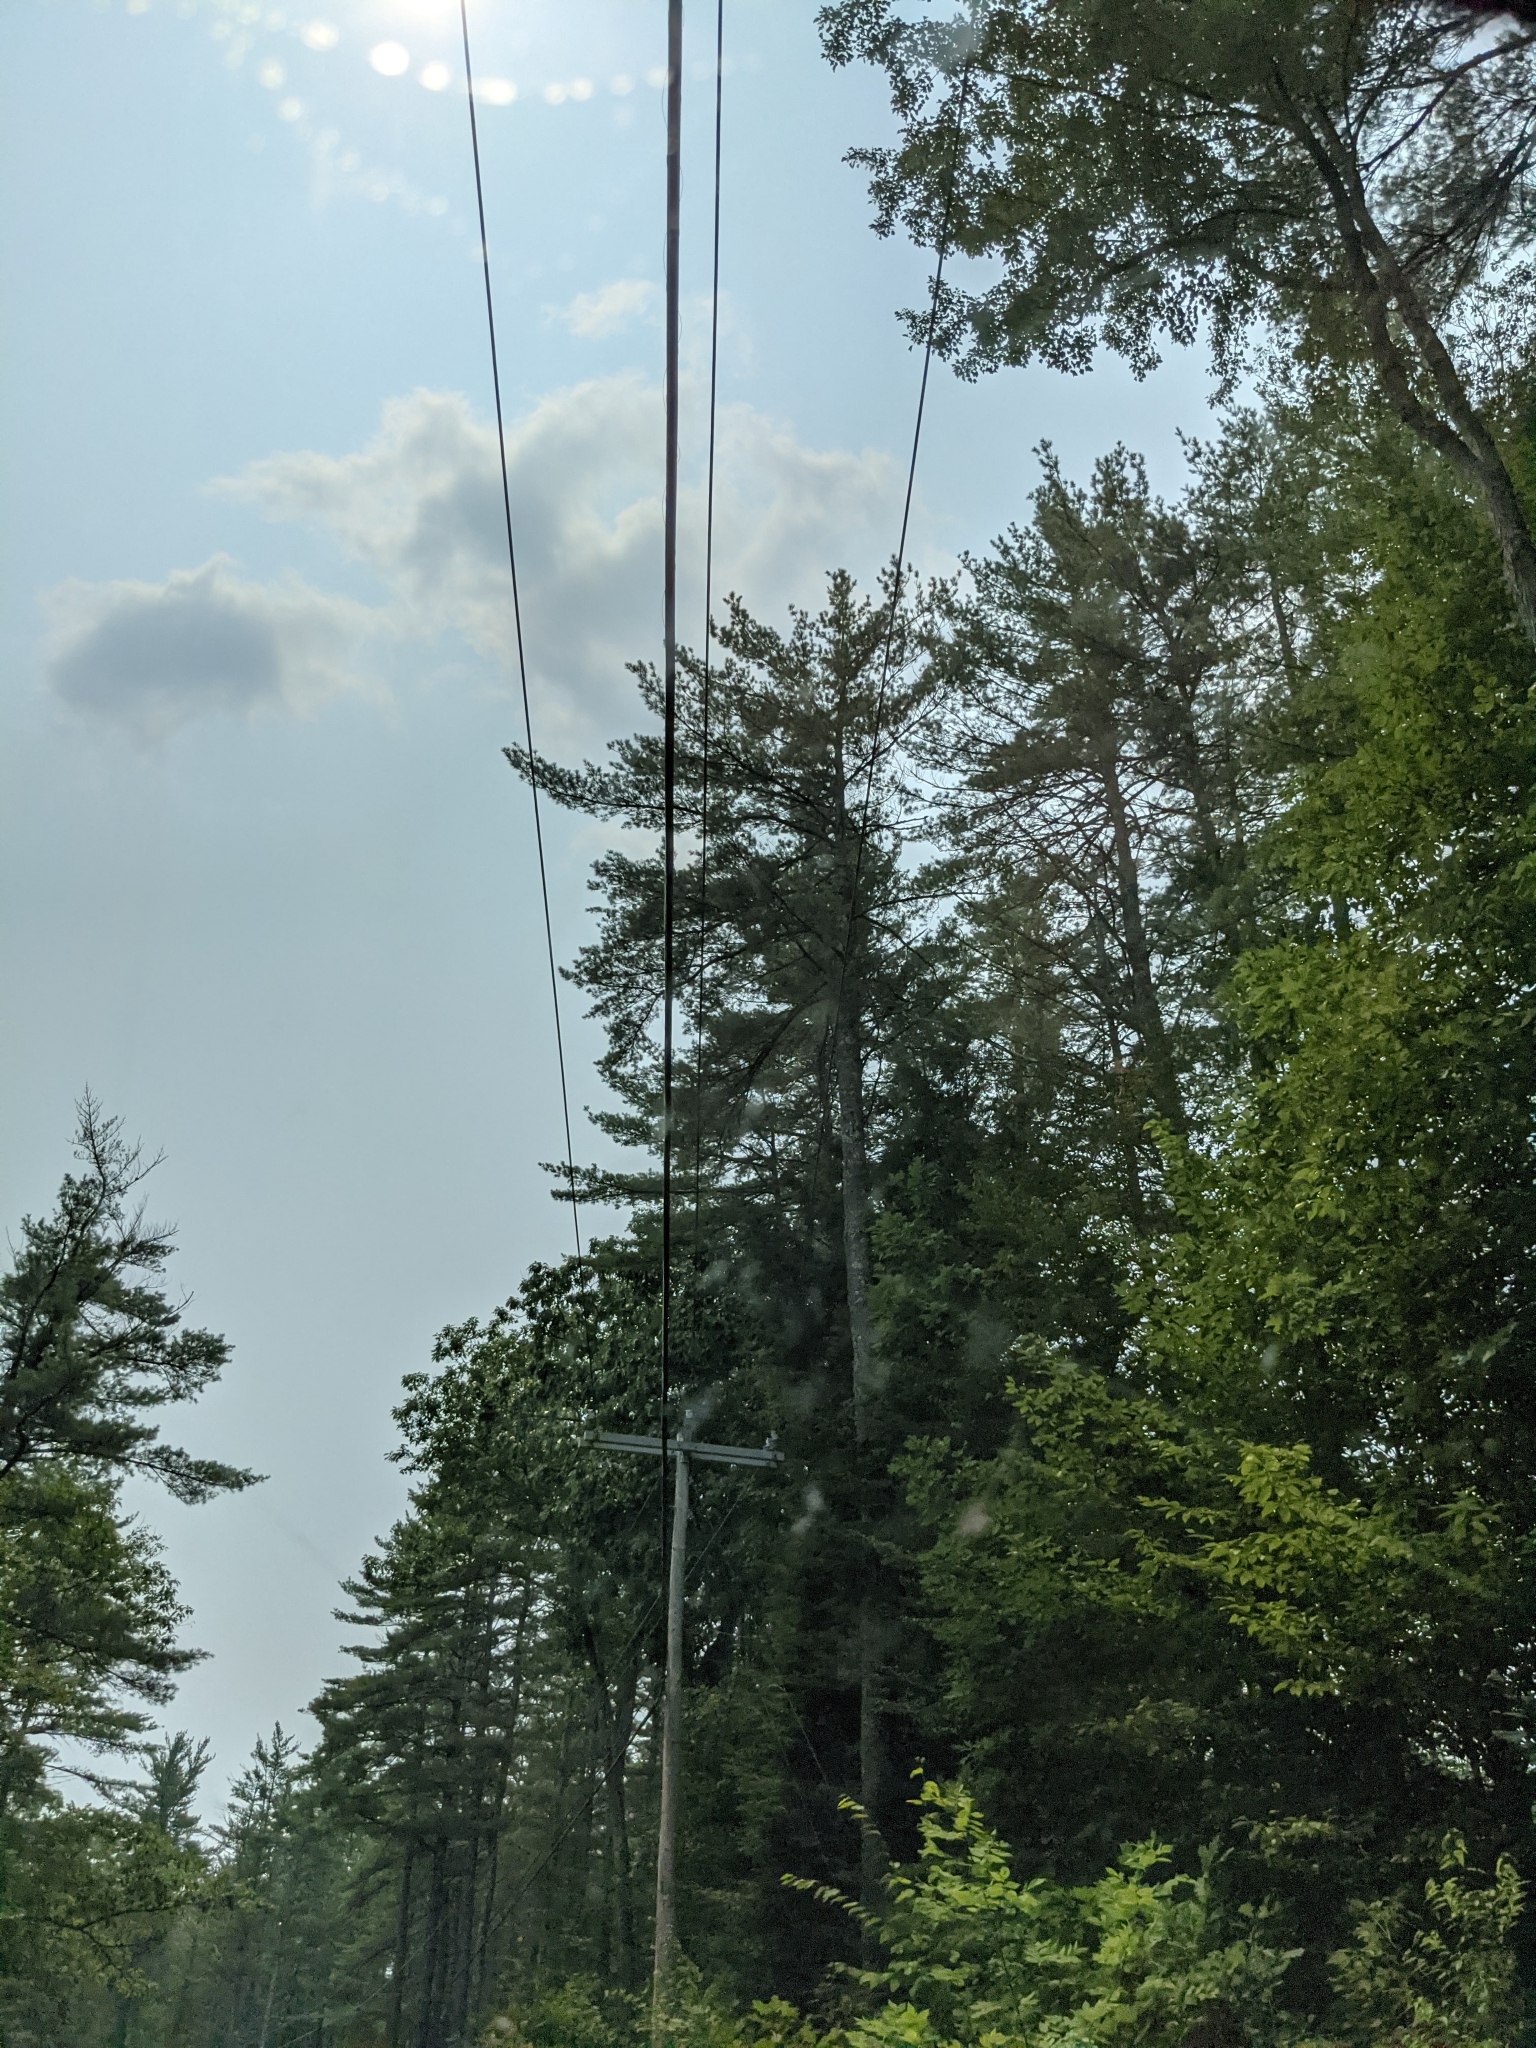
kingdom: Plantae
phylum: Tracheophyta
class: Pinopsida
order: Pinales
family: Pinaceae
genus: Pinus
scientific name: Pinus strobus
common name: Weymouth pine
